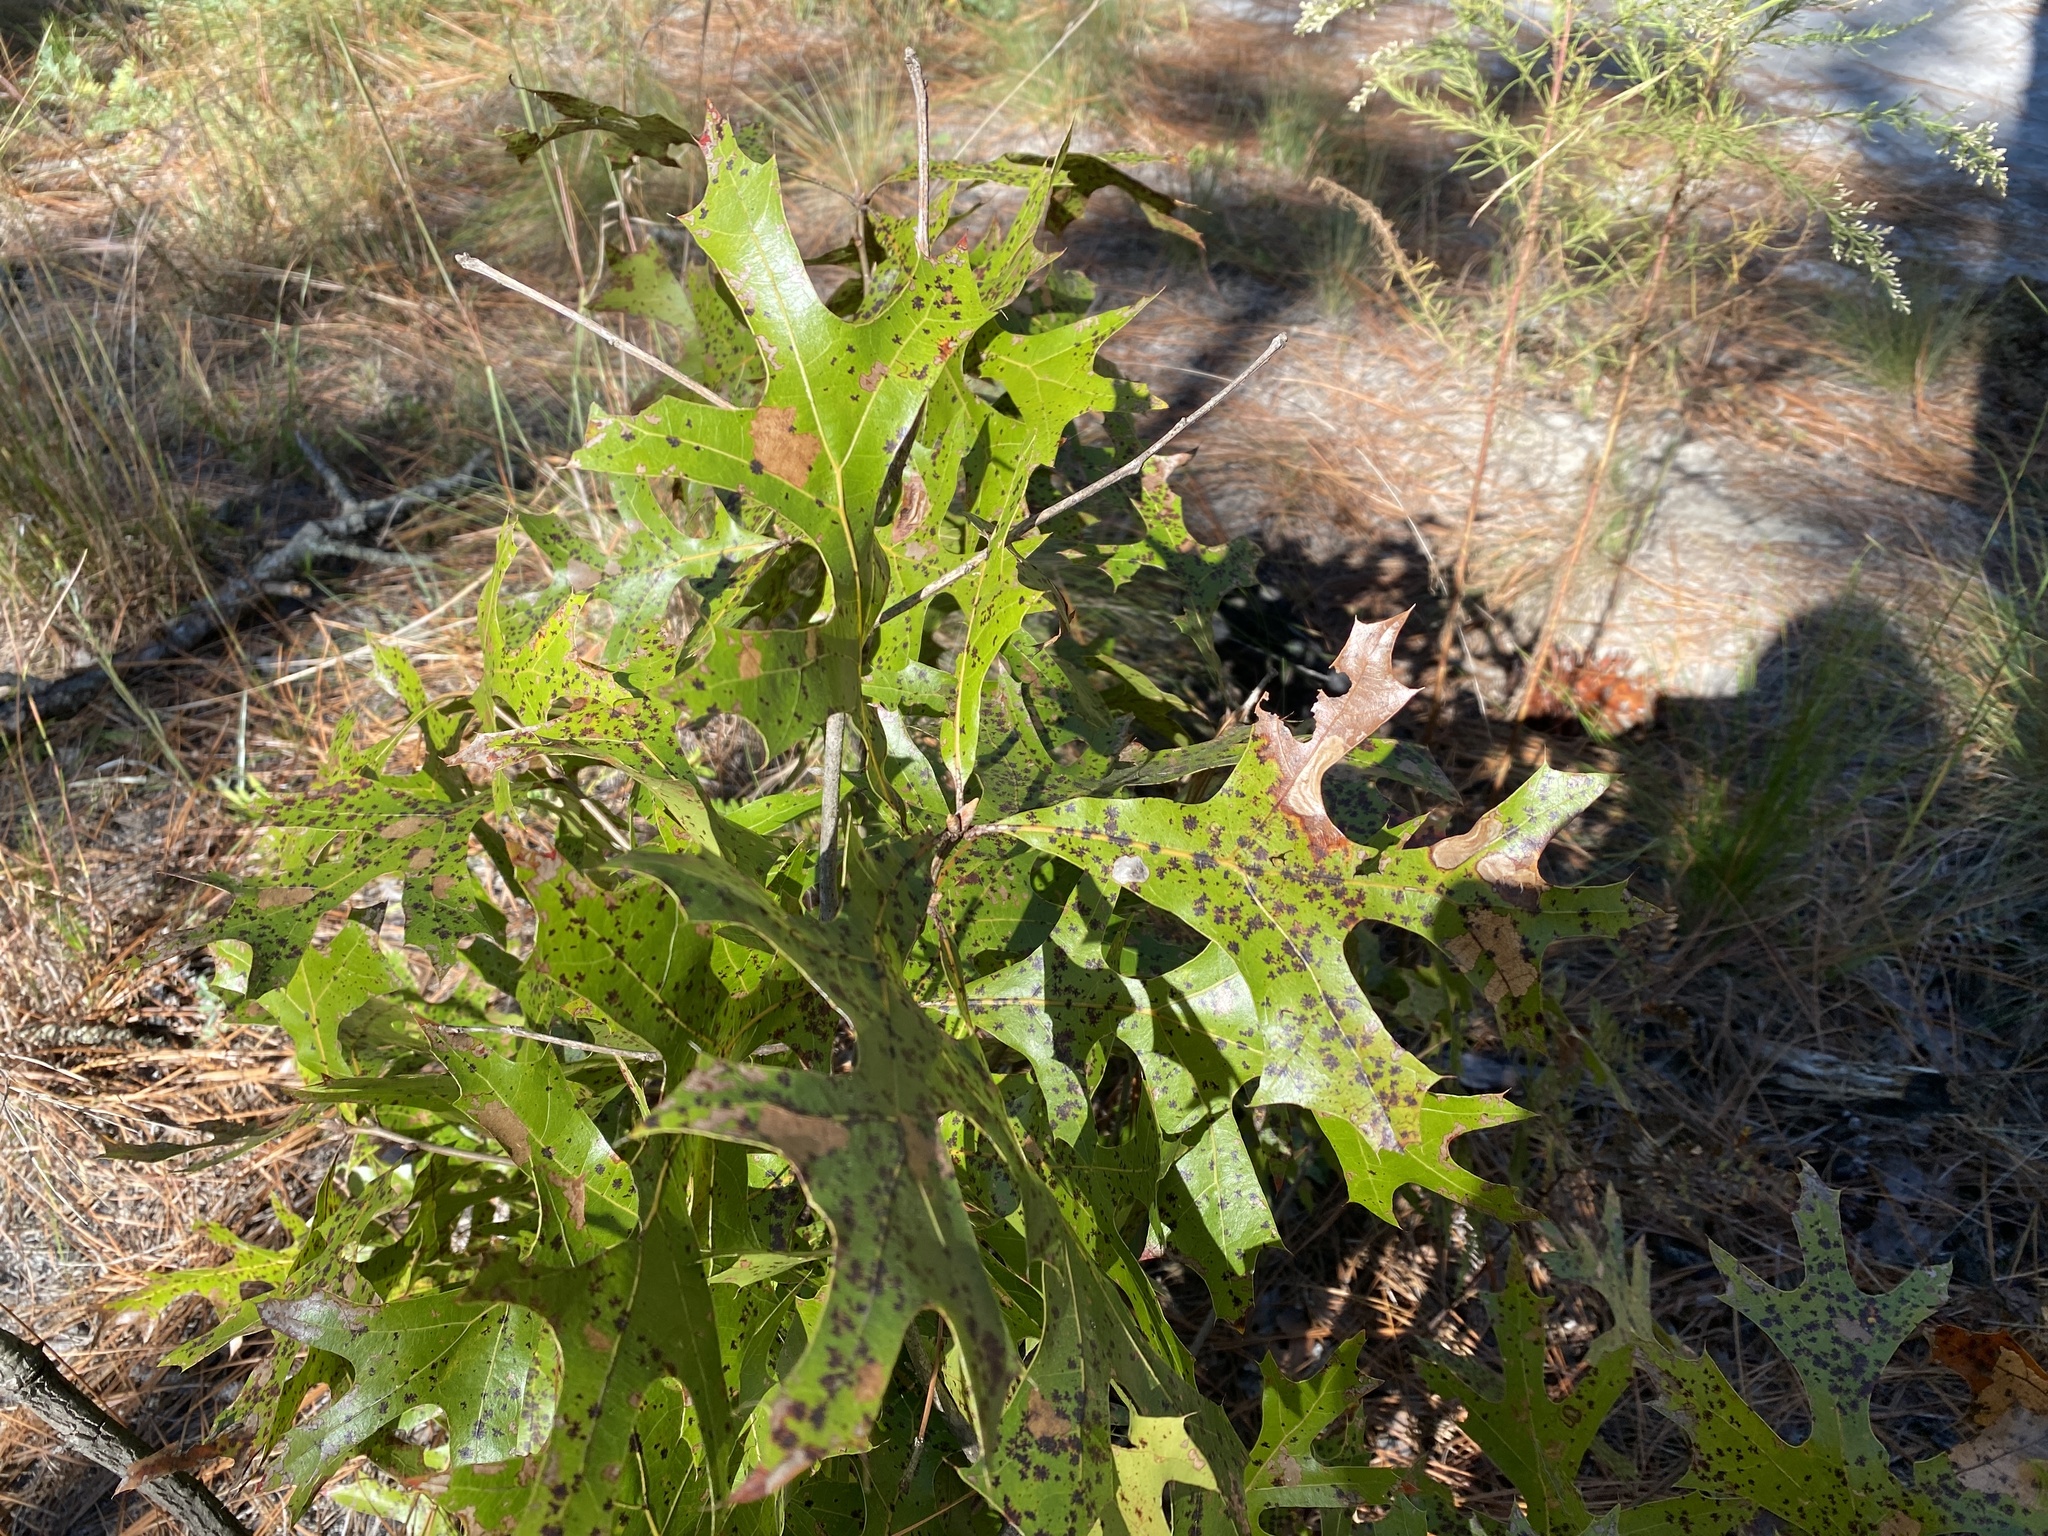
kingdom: Plantae
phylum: Tracheophyta
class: Magnoliopsida
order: Fagales
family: Fagaceae
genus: Quercus
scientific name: Quercus laevis
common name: Turkey oak
